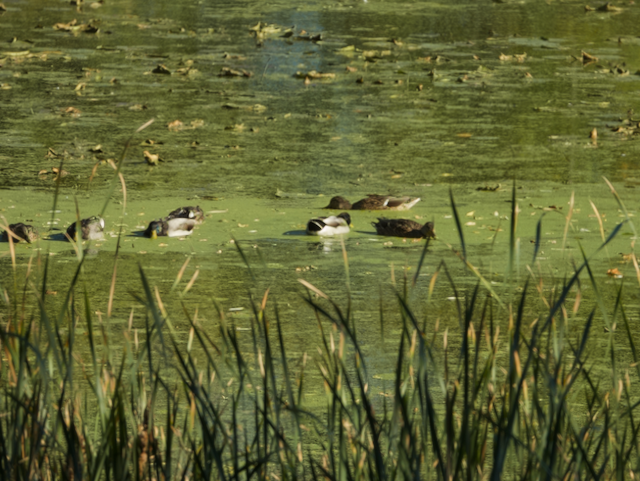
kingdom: Animalia
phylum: Chordata
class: Aves
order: Anseriformes
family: Anatidae
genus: Anas
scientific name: Anas platyrhynchos
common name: Mallard
